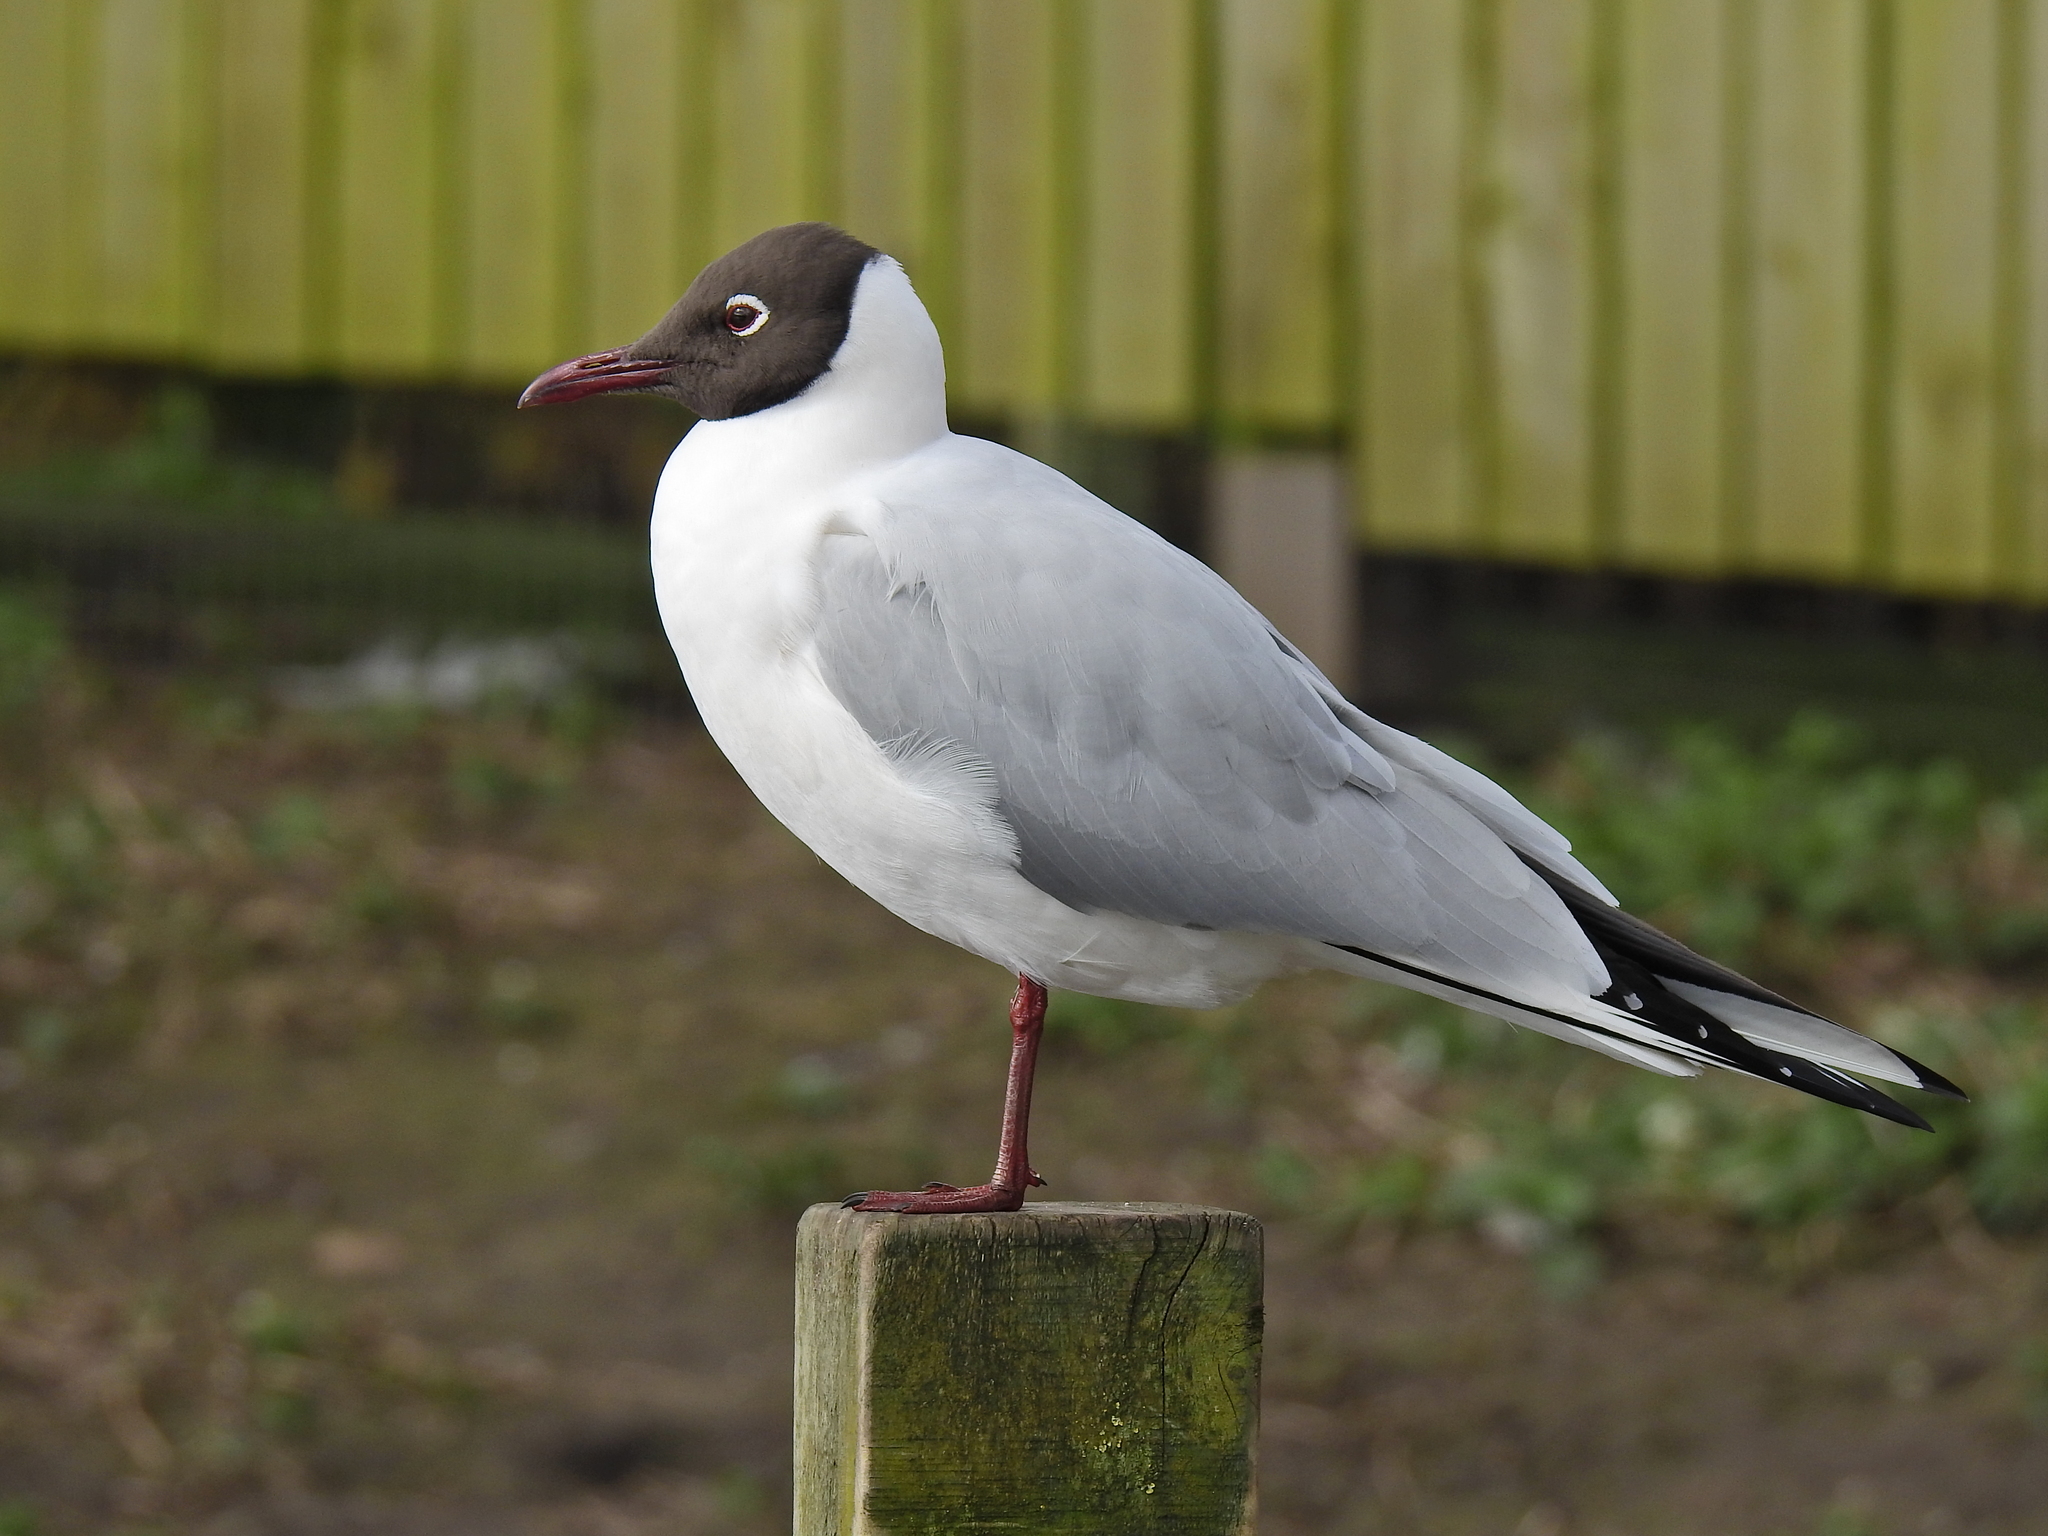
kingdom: Animalia
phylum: Chordata
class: Aves
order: Charadriiformes
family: Laridae
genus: Chroicocephalus
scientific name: Chroicocephalus ridibundus
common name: Black-headed gull
